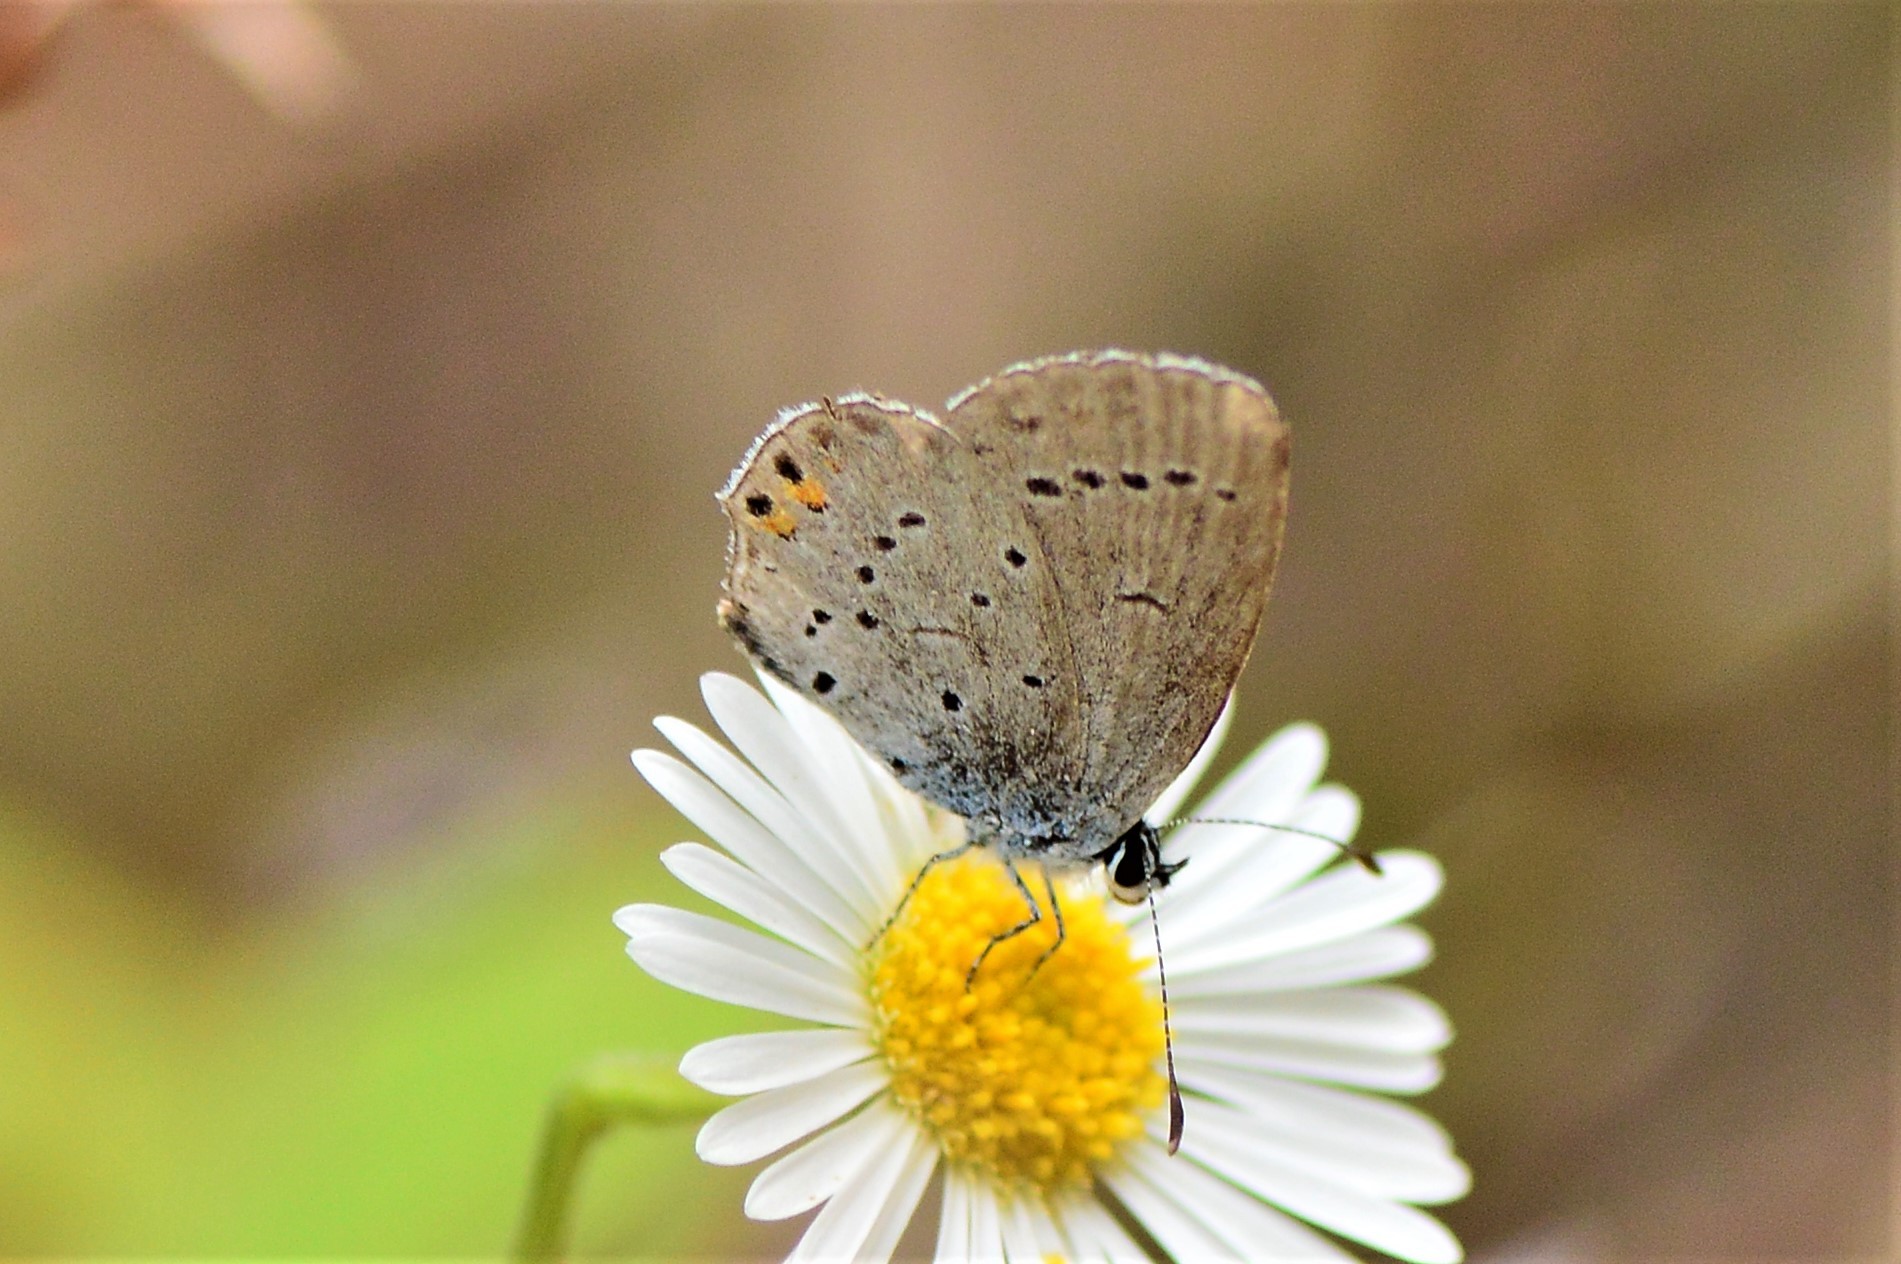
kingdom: Animalia
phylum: Arthropoda
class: Insecta
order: Lepidoptera
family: Lycaenidae
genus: Elkalyce
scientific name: Elkalyce argiades
